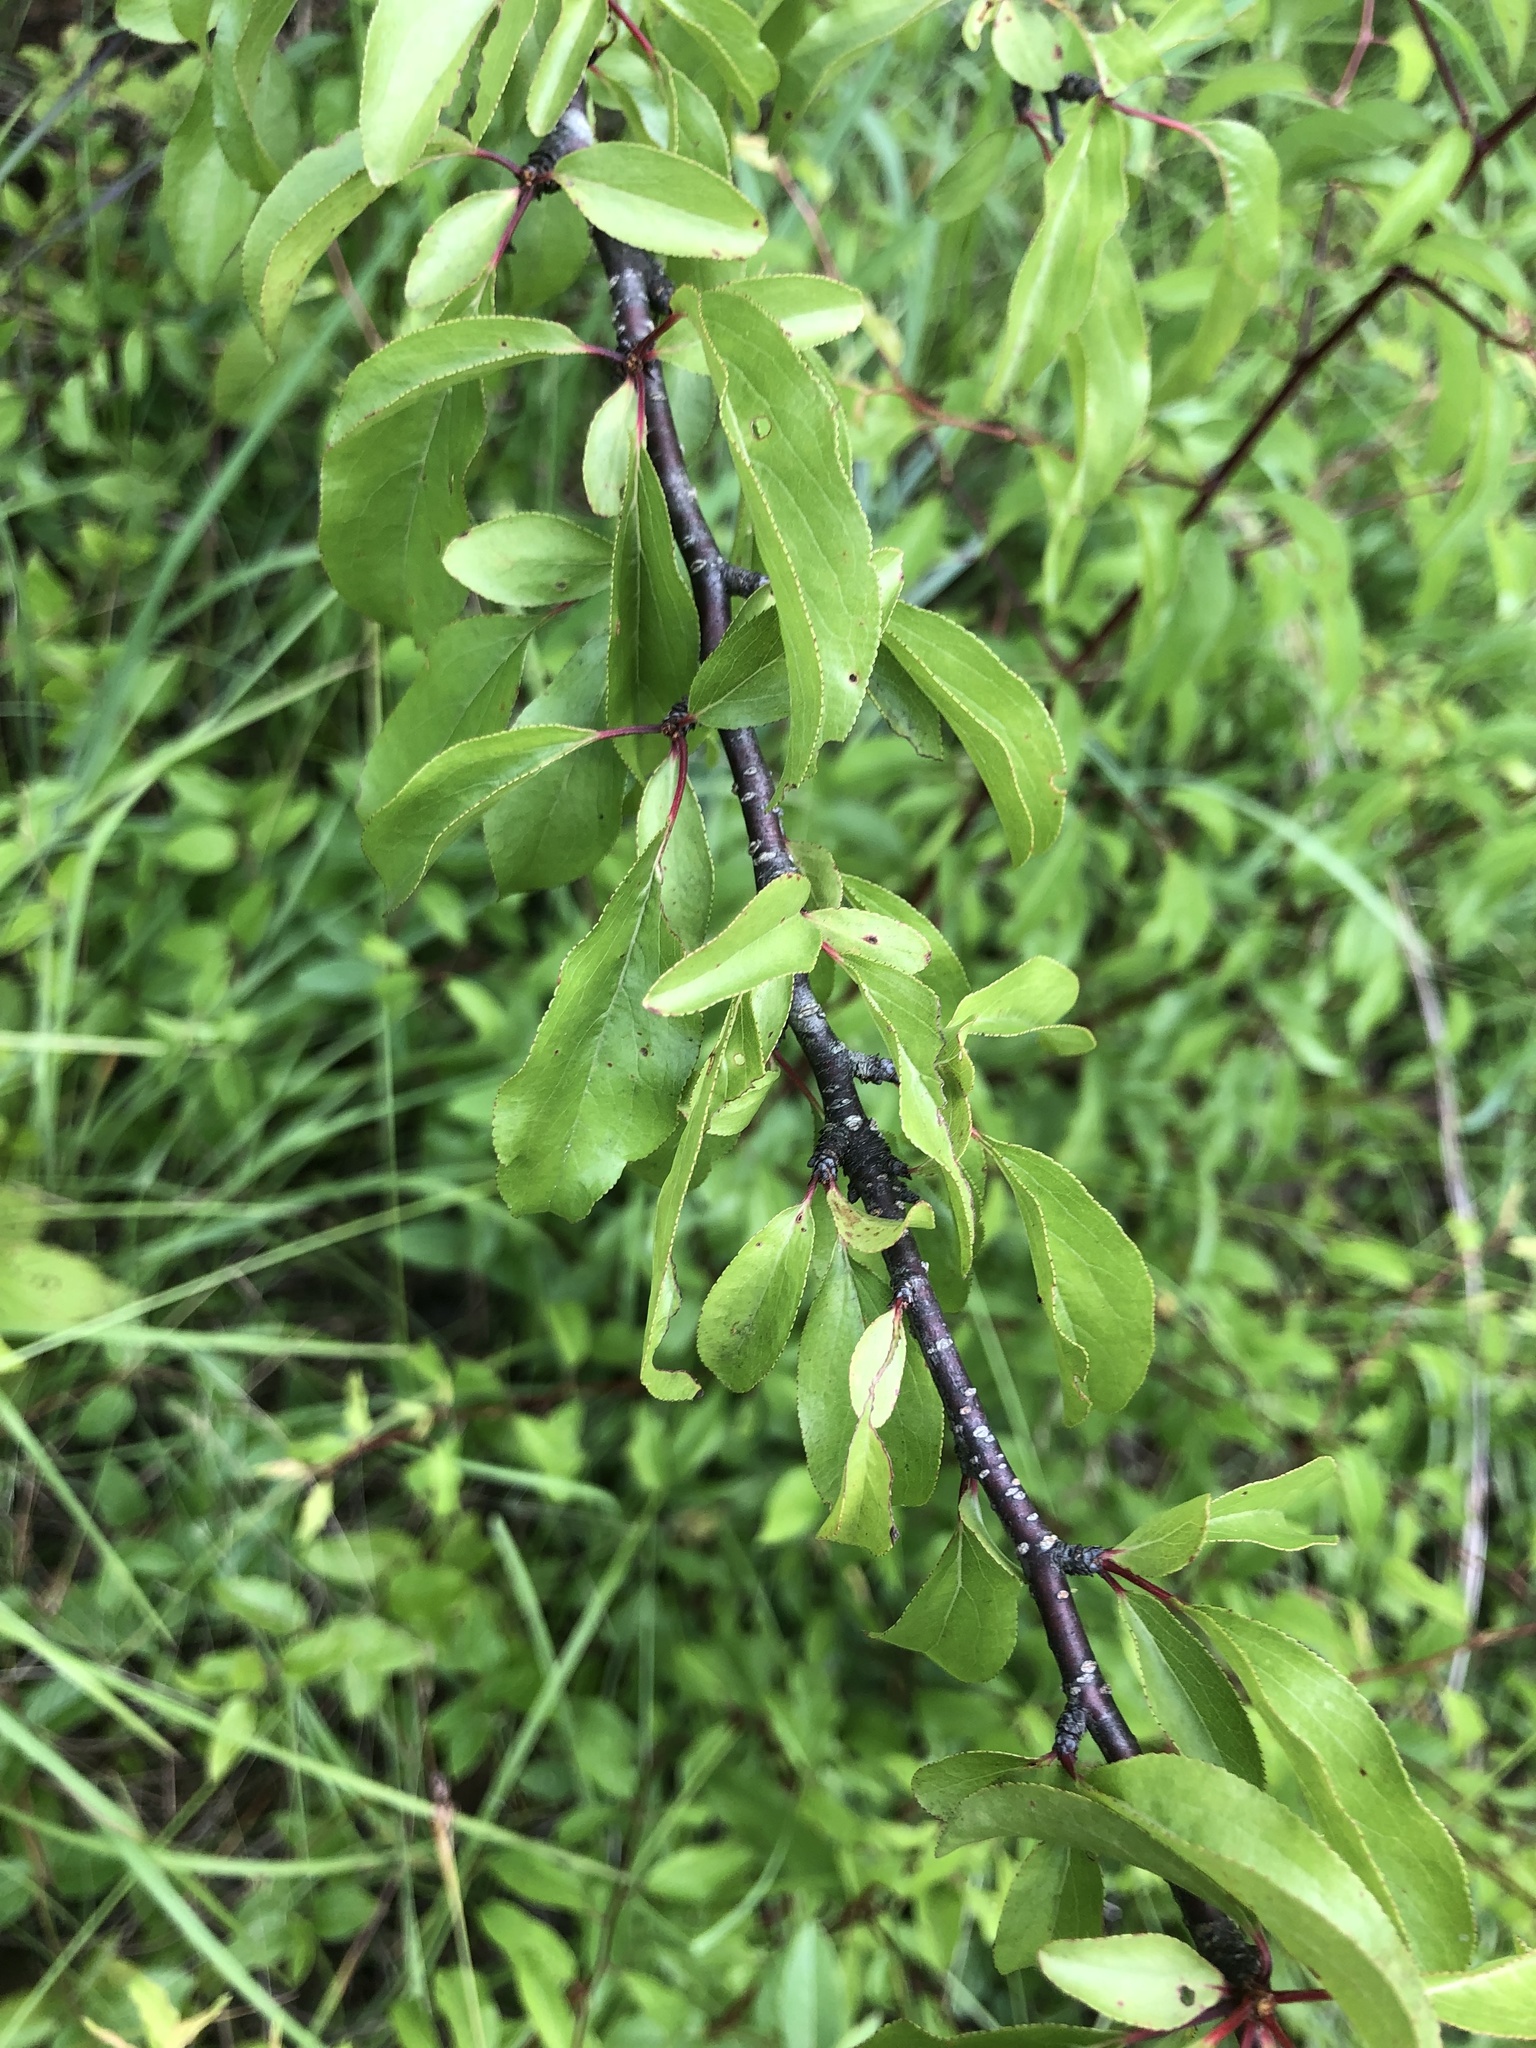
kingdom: Plantae
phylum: Tracheophyta
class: Magnoliopsida
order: Rosales
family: Rosaceae
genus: Prunus
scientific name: Prunus angustifolia
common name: Cherokee plum
